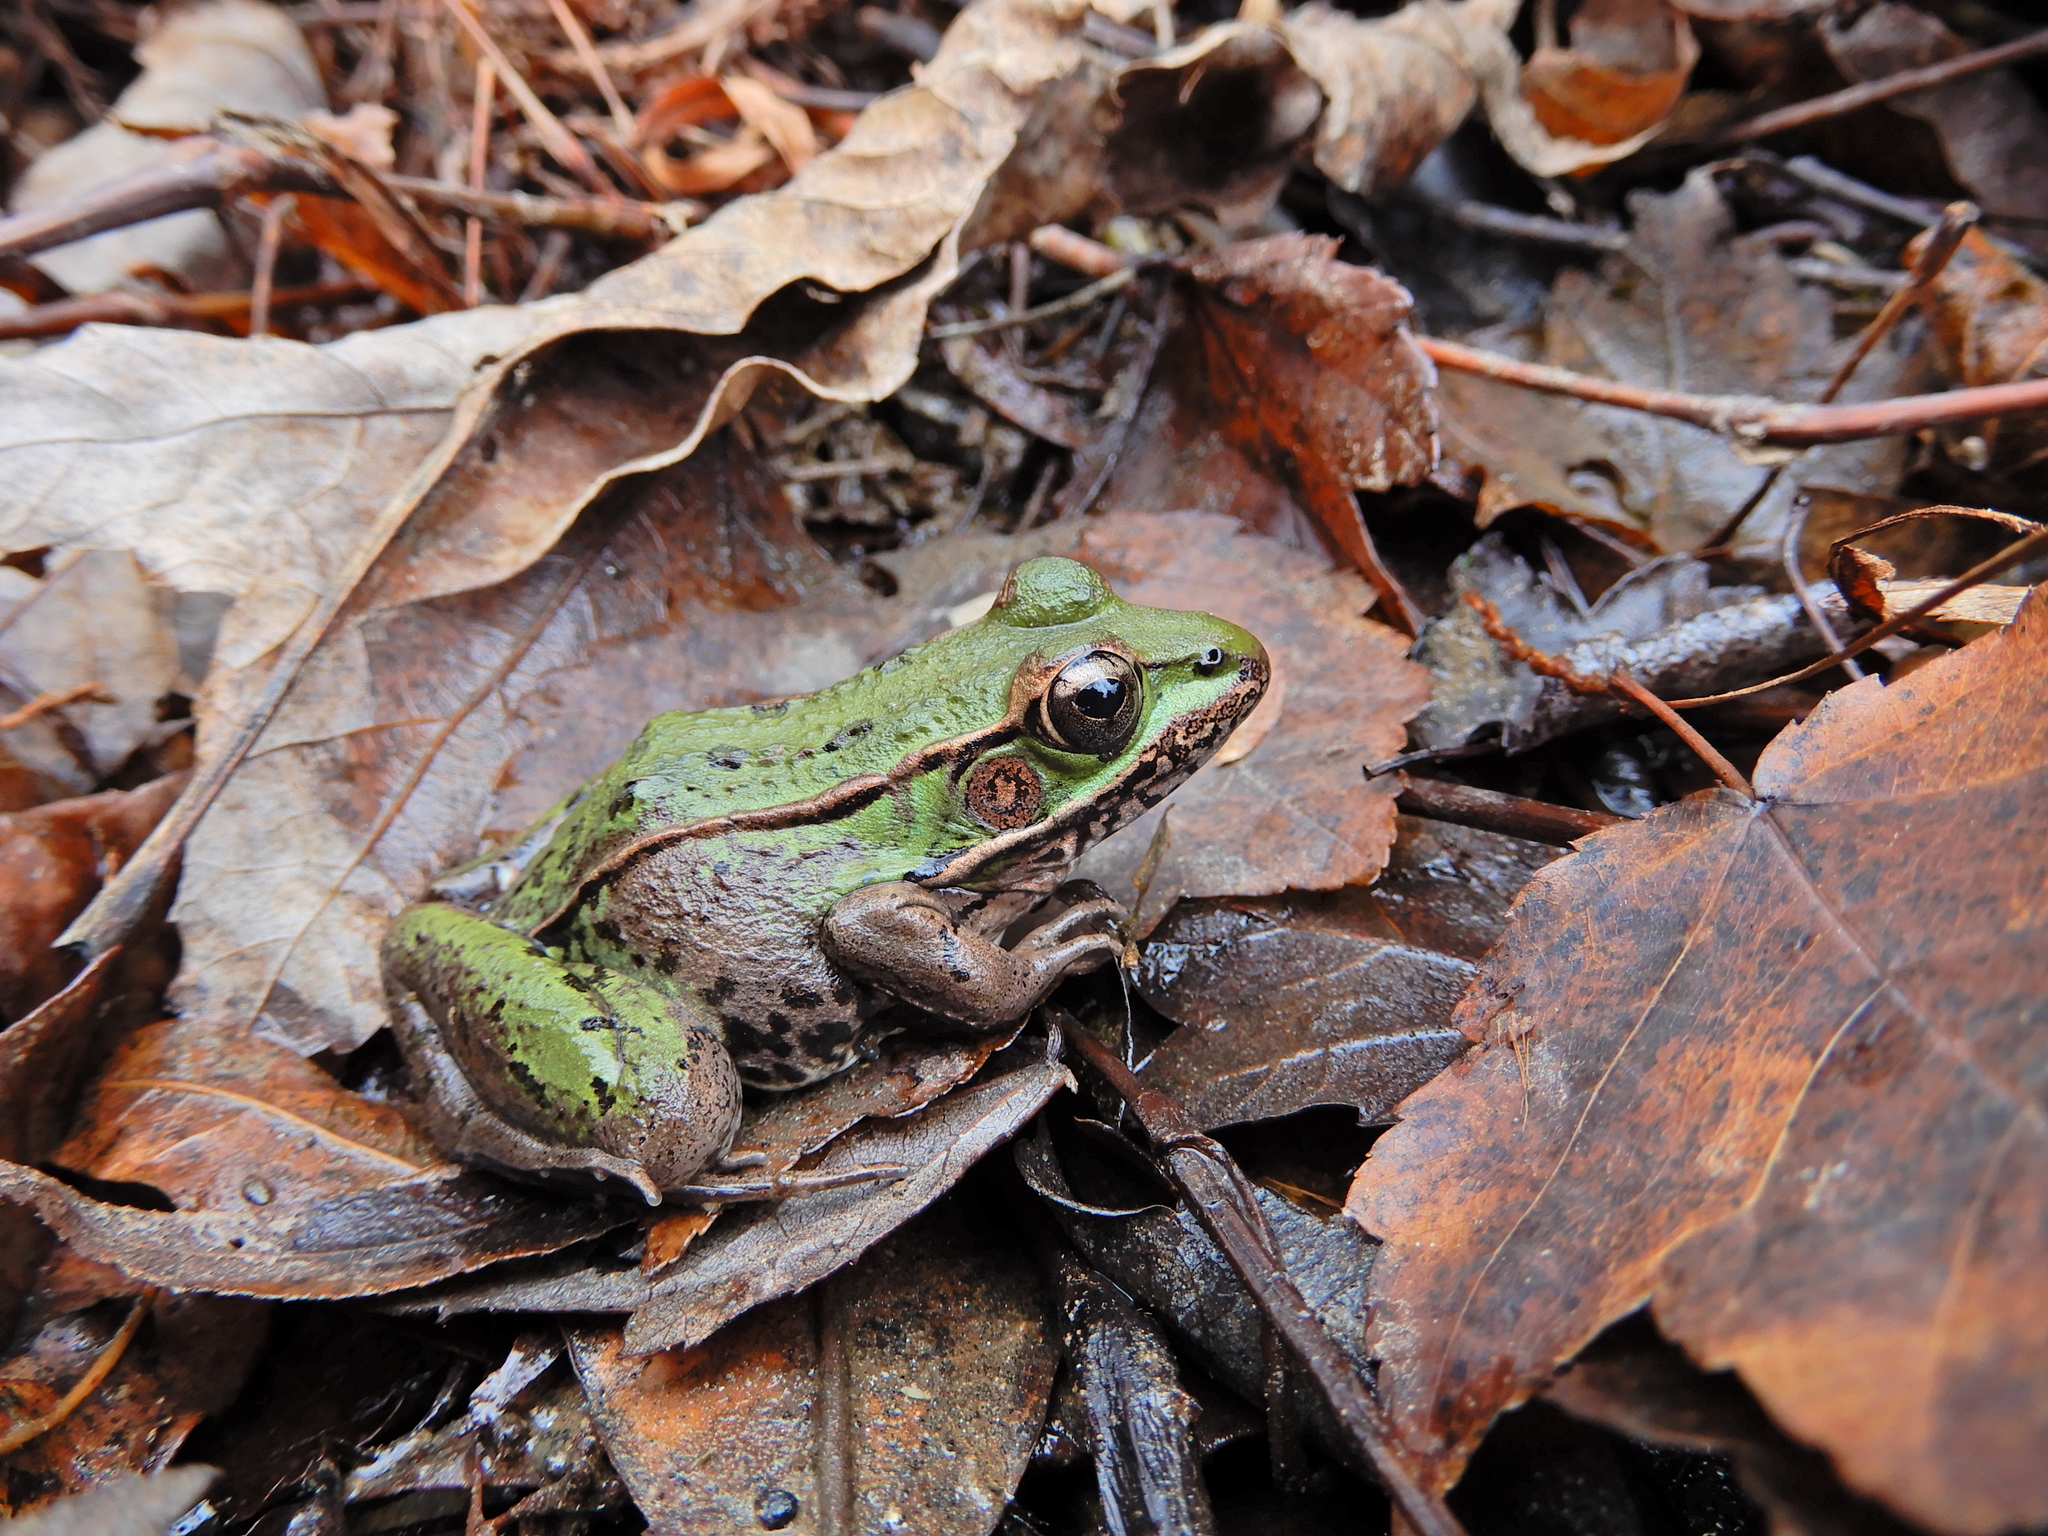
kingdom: Animalia
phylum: Chordata
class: Amphibia
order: Anura
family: Ranidae
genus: Lithobates
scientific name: Lithobates sphenocephalus
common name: Southern leopard frog
